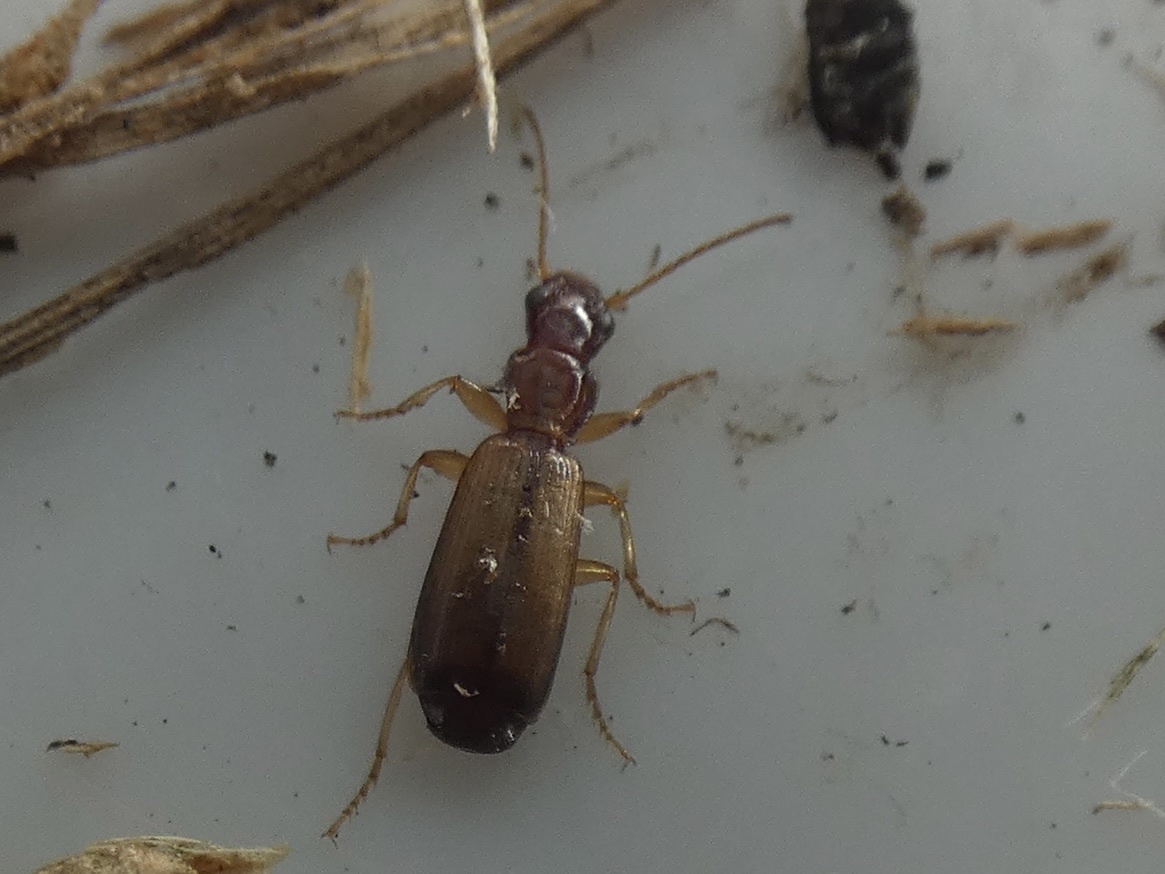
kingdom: Animalia
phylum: Arthropoda
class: Insecta
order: Coleoptera
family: Carabidae
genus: Paradromius
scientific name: Paradromius linearis
